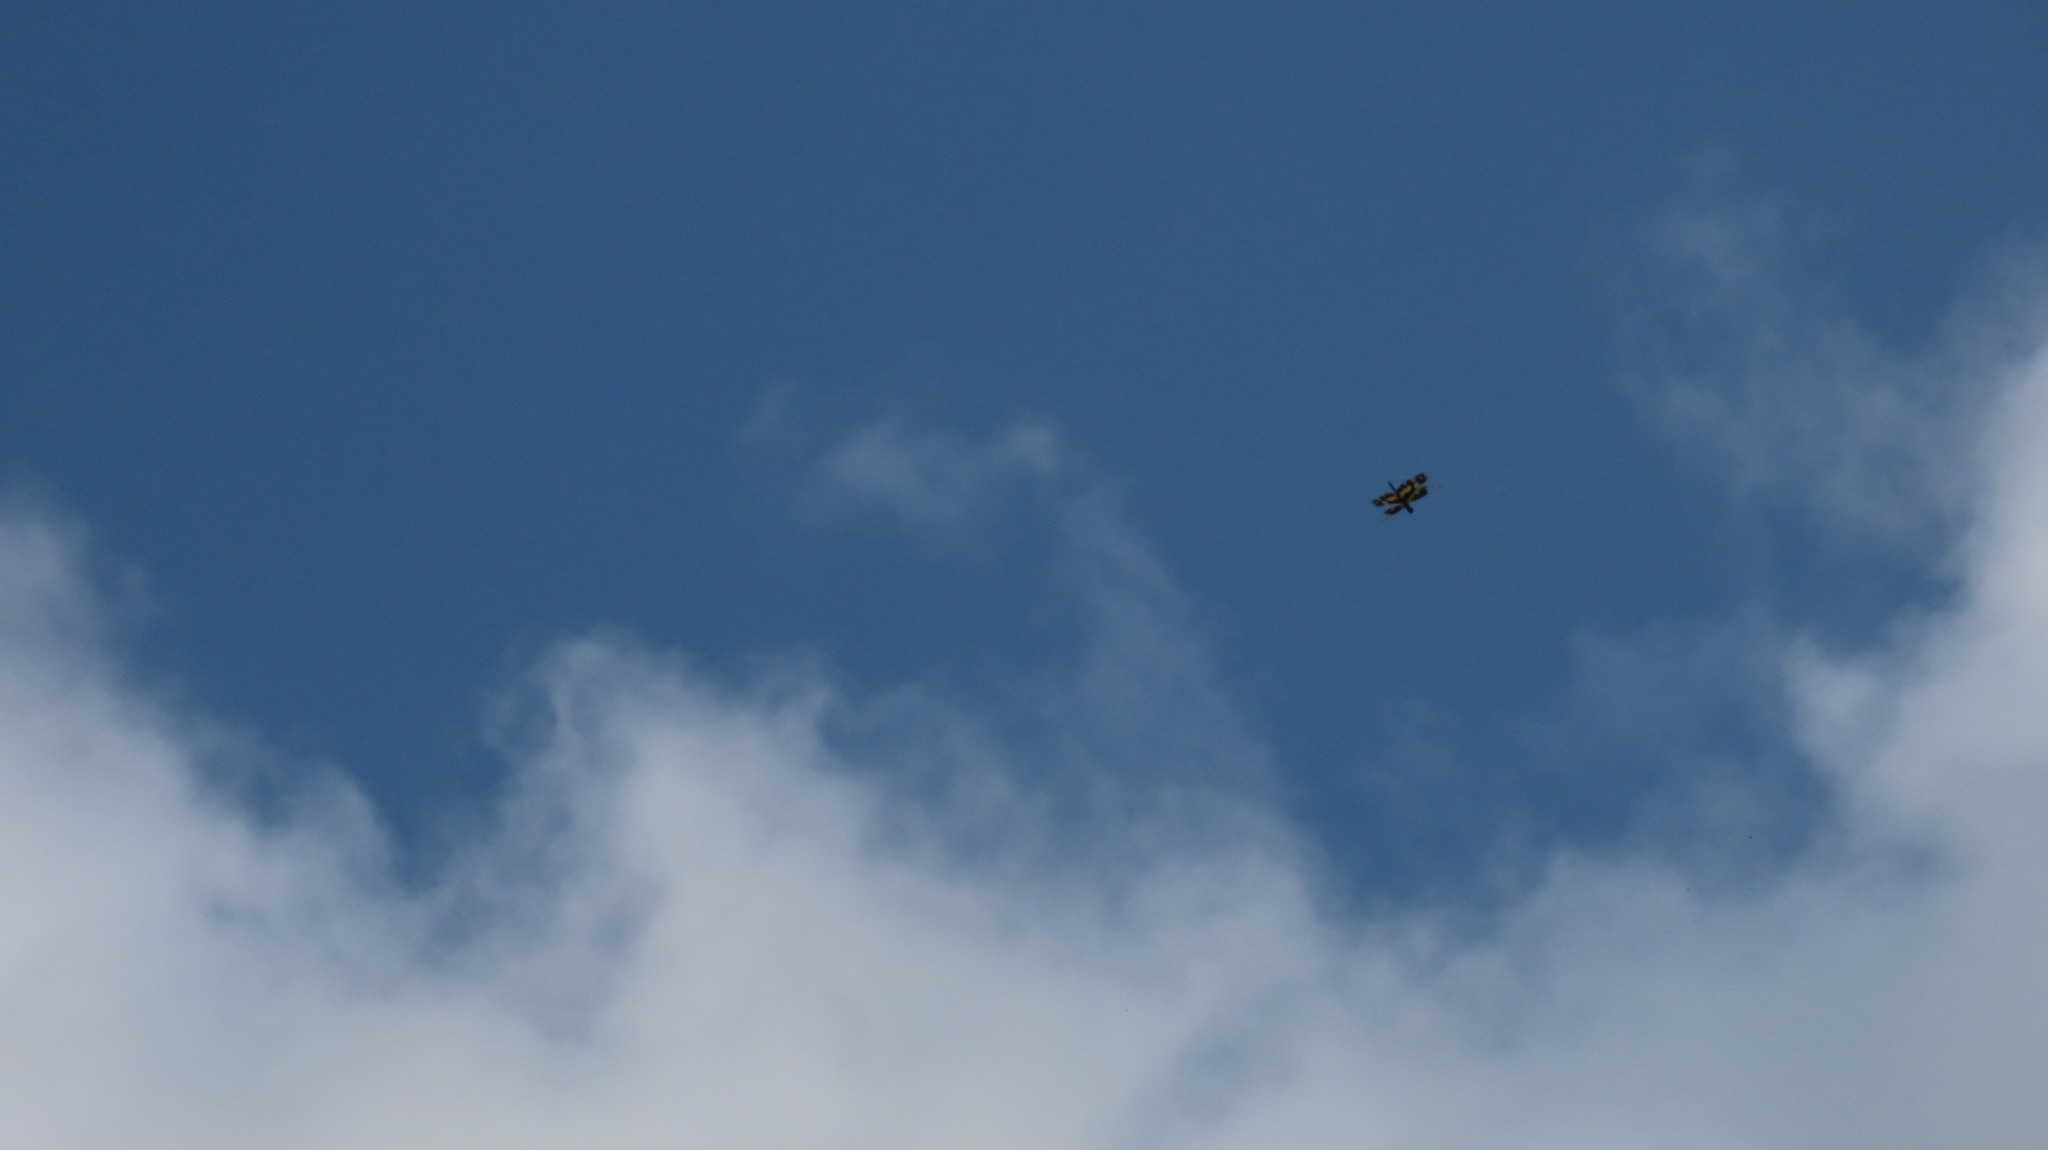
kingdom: Animalia
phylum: Arthropoda
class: Insecta
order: Odonata
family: Libellulidae
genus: Rhyothemis
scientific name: Rhyothemis variegata
